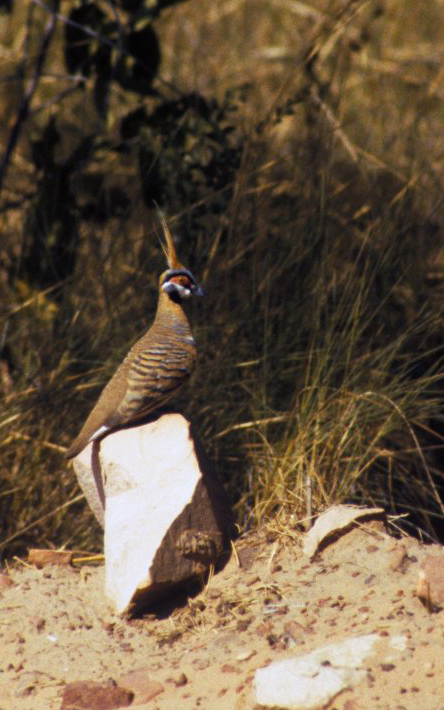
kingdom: Animalia
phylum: Chordata
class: Aves
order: Columbiformes
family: Columbidae
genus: Geophaps
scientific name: Geophaps plumifera
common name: Spinifex pigeon
